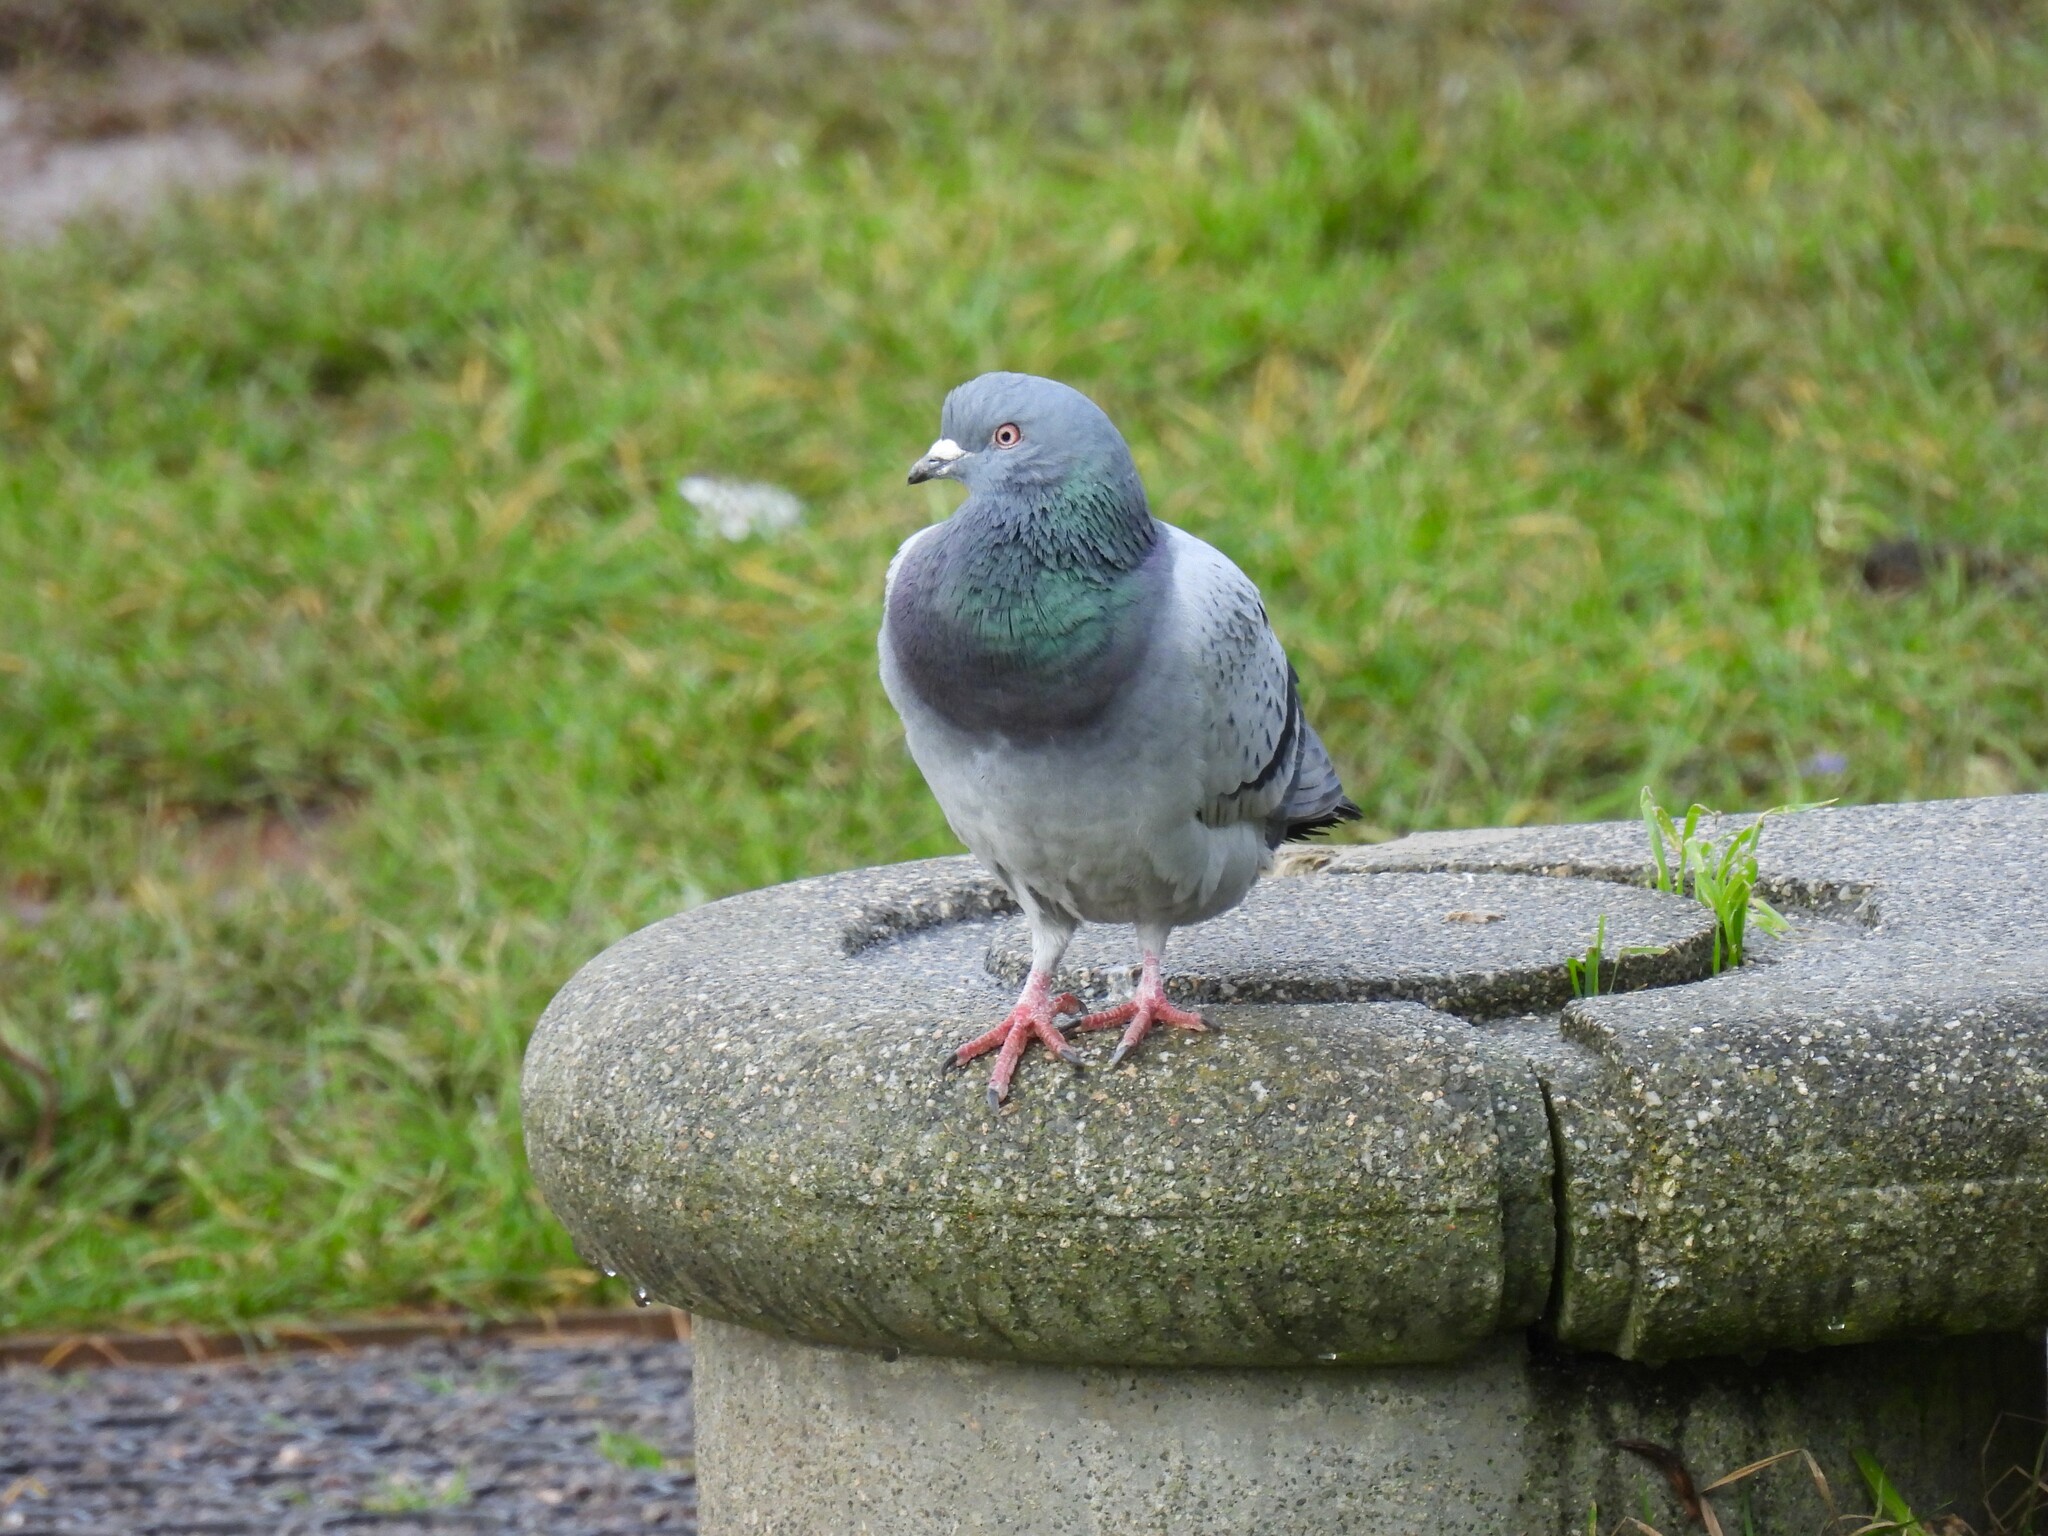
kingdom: Animalia
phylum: Chordata
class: Aves
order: Columbiformes
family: Columbidae
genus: Columba
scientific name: Columba livia
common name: Rock pigeon
